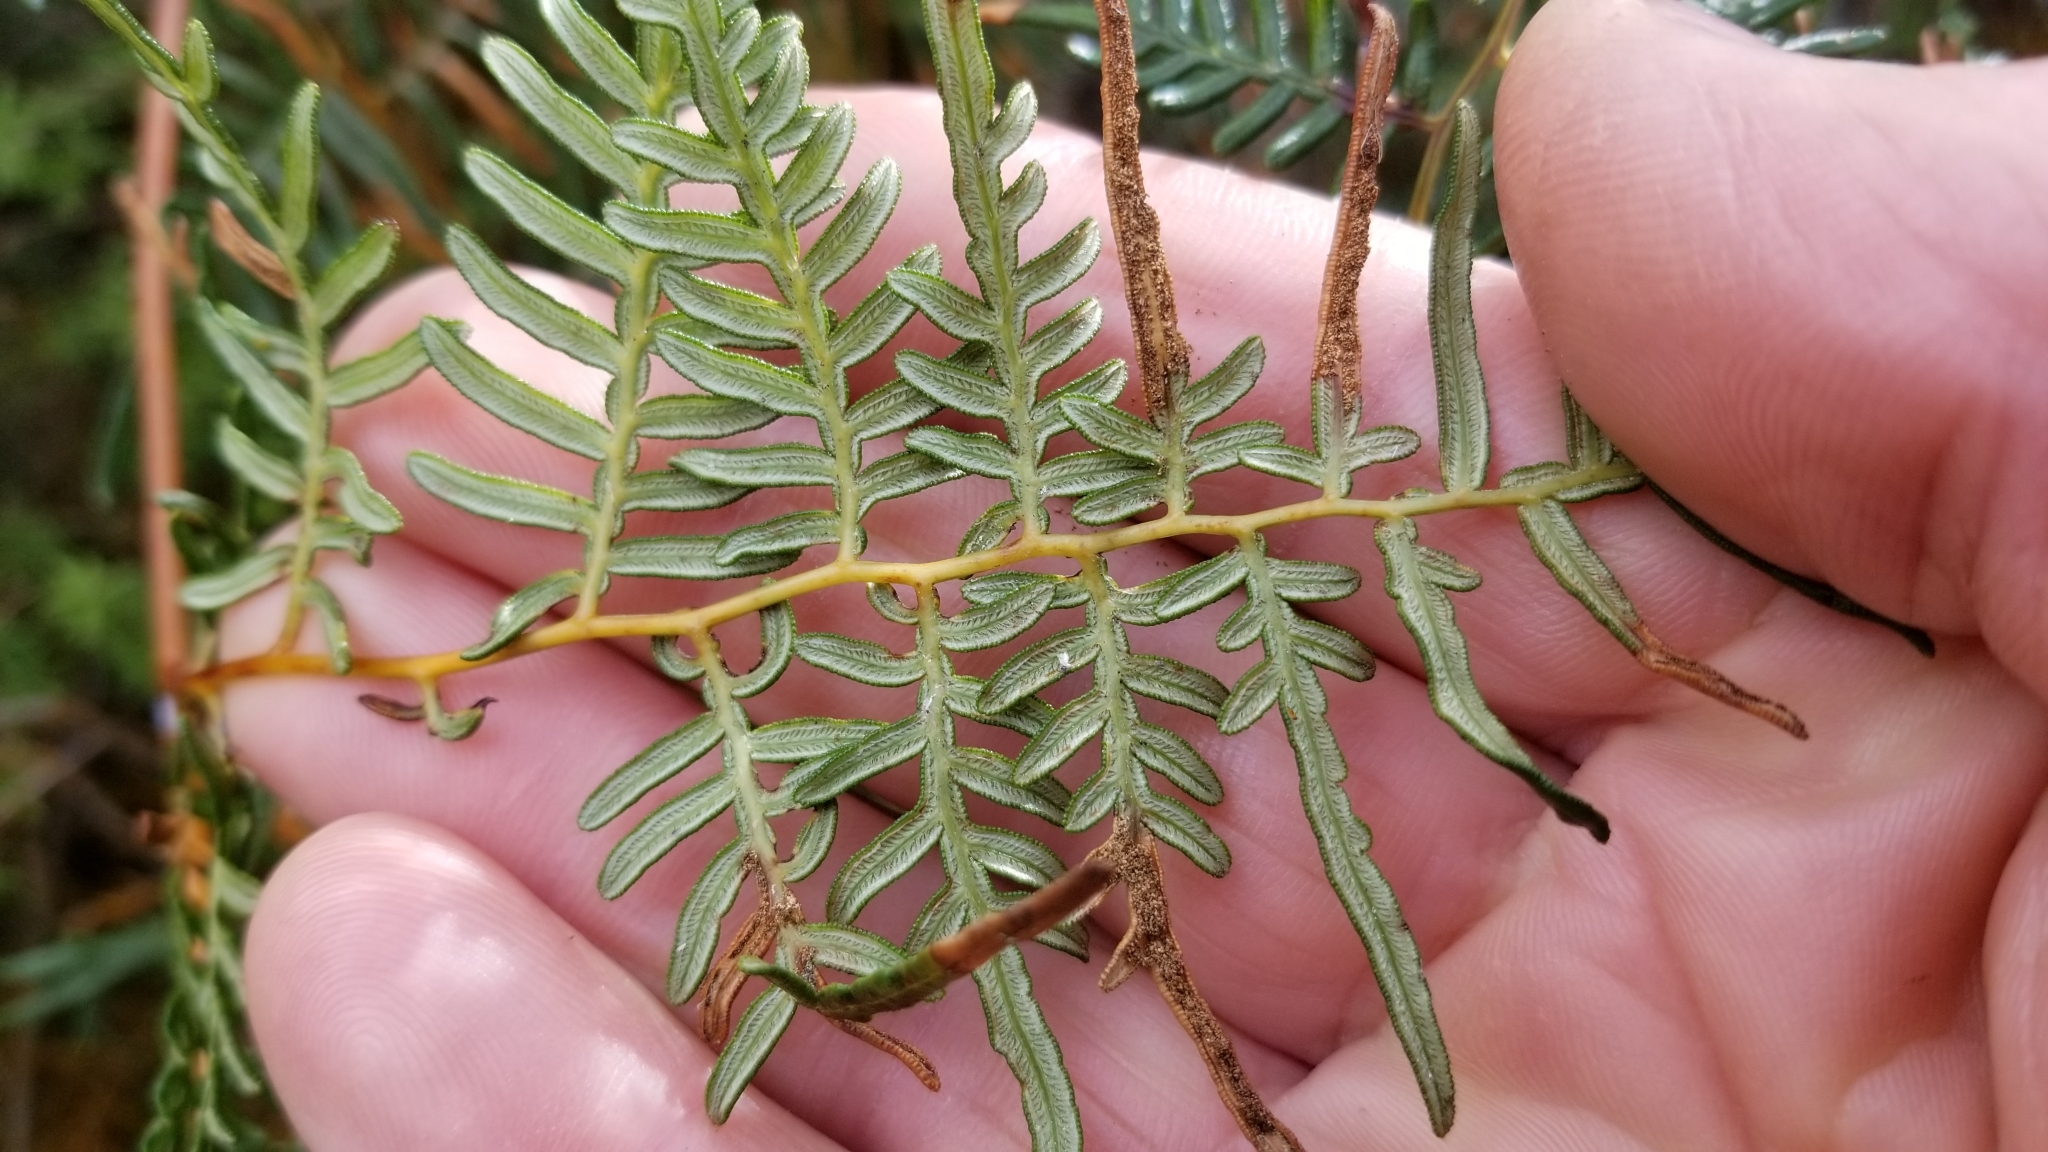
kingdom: Plantae
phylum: Tracheophyta
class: Polypodiopsida
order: Polypodiales
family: Dennstaedtiaceae
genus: Pteridium
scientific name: Pteridium esculentum
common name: Bracken fern
